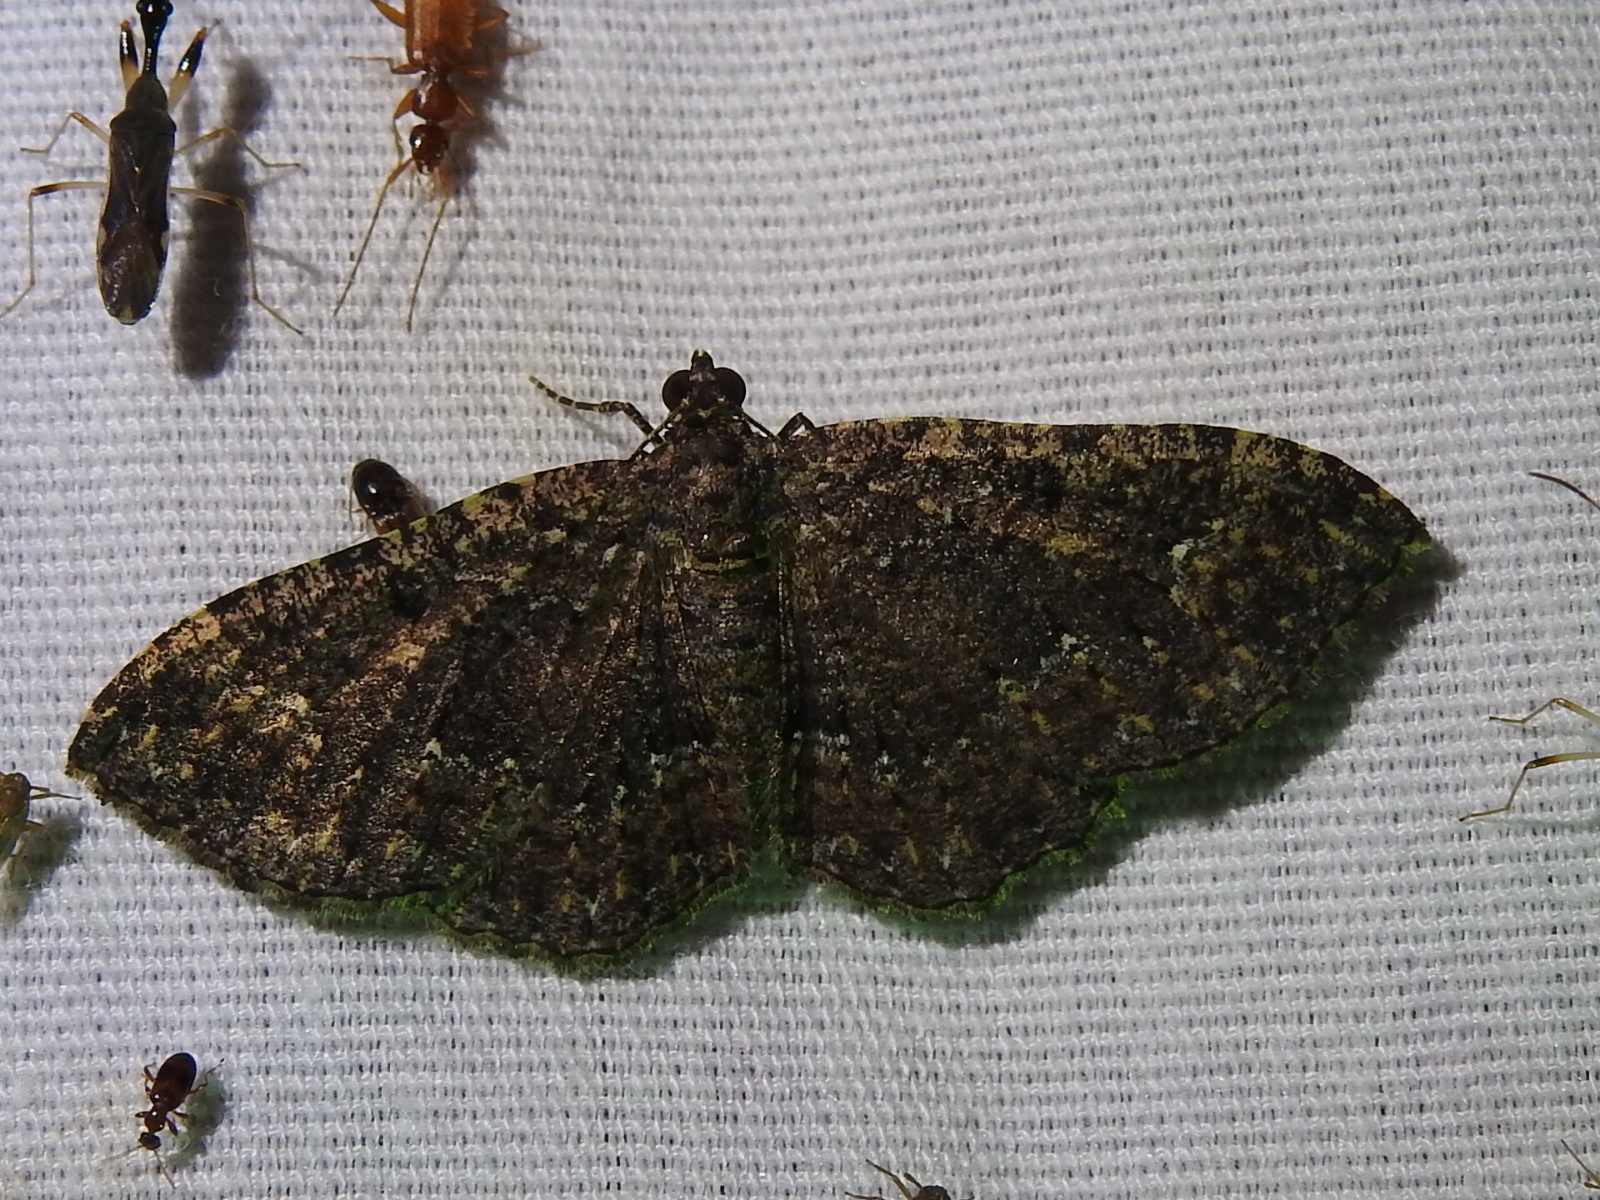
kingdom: Animalia
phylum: Arthropoda
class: Insecta
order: Lepidoptera
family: Geometridae
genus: Disclisioprocta
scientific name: Disclisioprocta stellata
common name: Somber carpet
